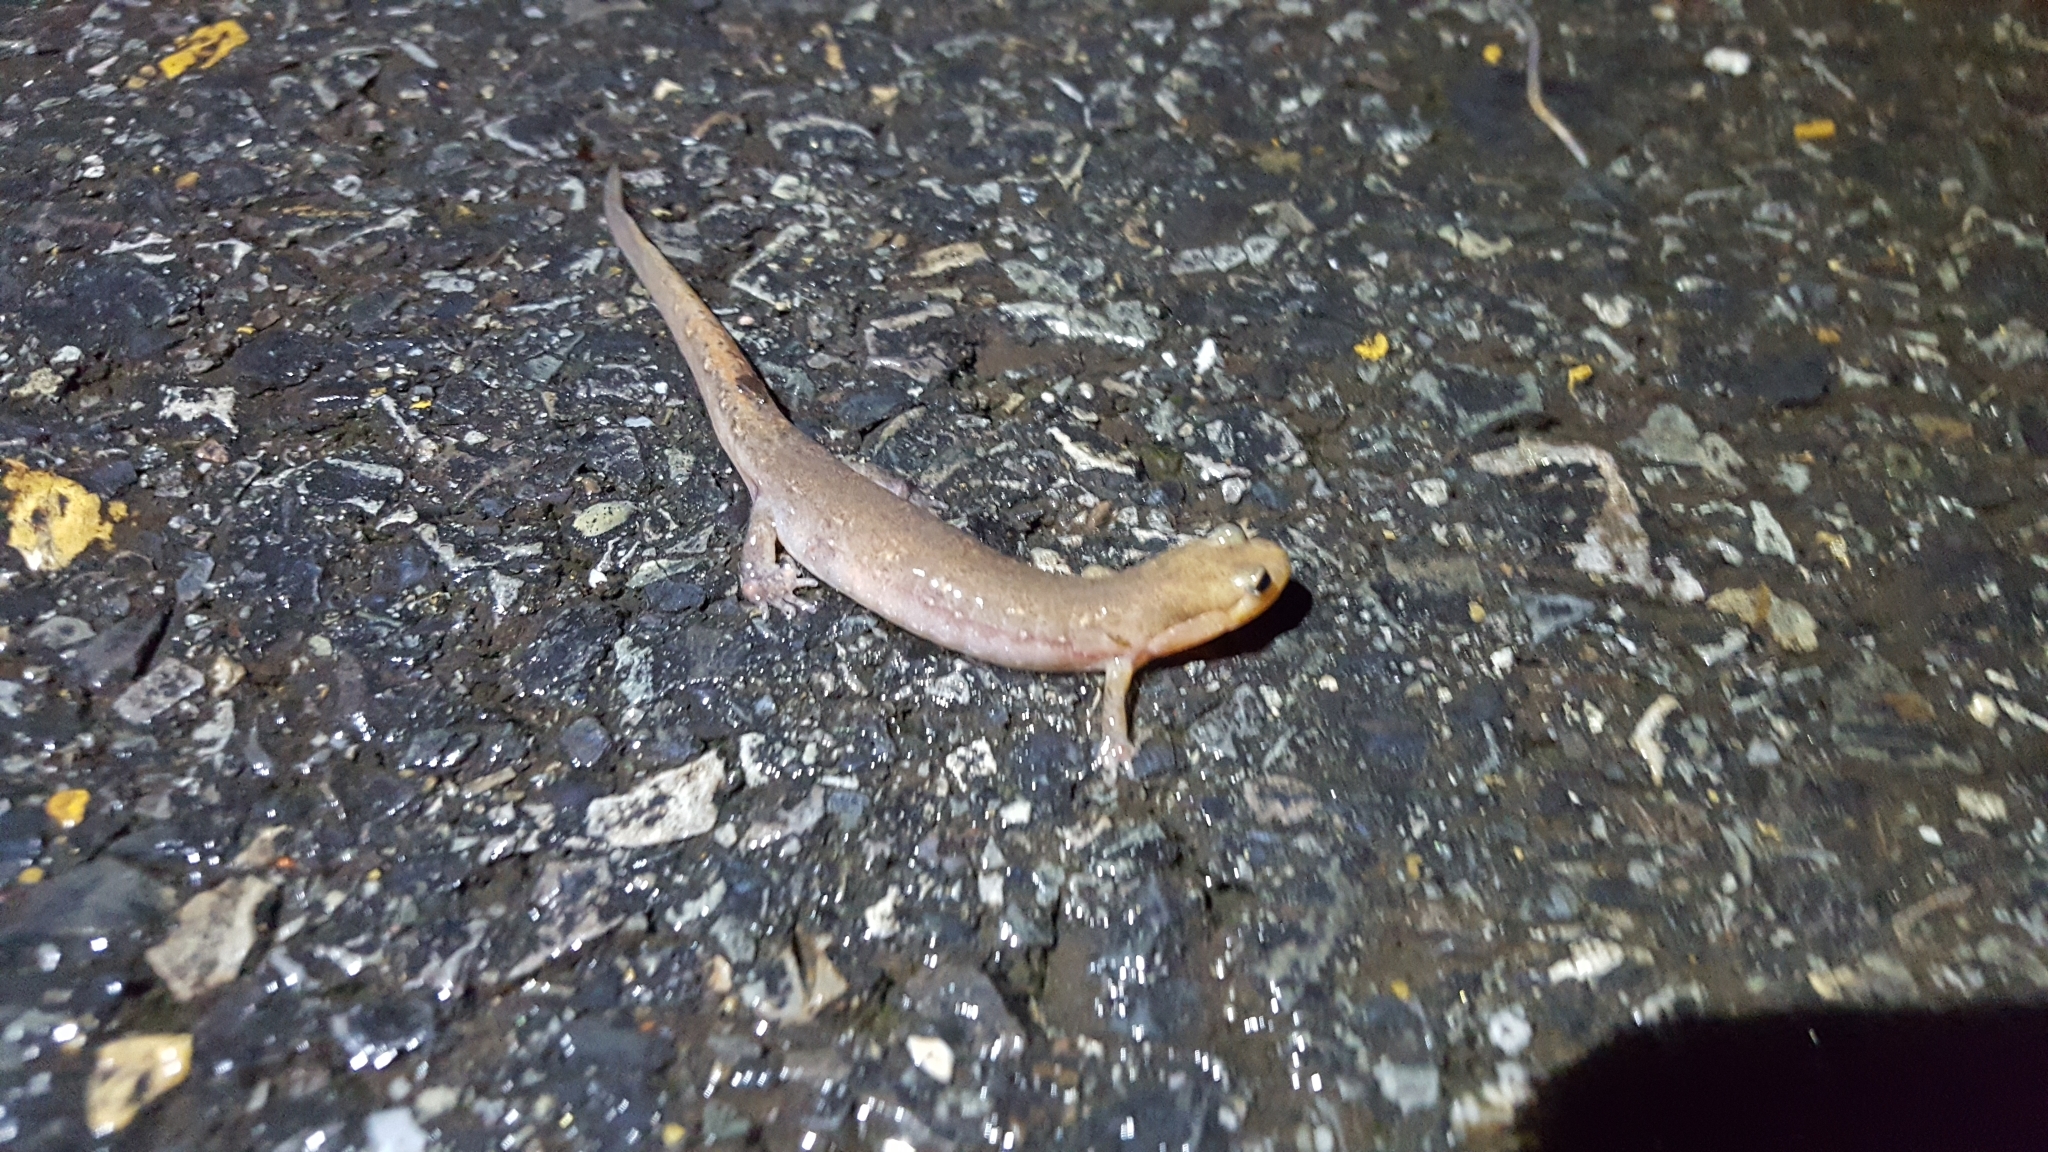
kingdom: Animalia
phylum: Chordata
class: Amphibia
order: Caudata
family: Plethodontidae
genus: Desmognathus
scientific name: Desmognathus brimleyorum
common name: Ouachita dusky salamander
